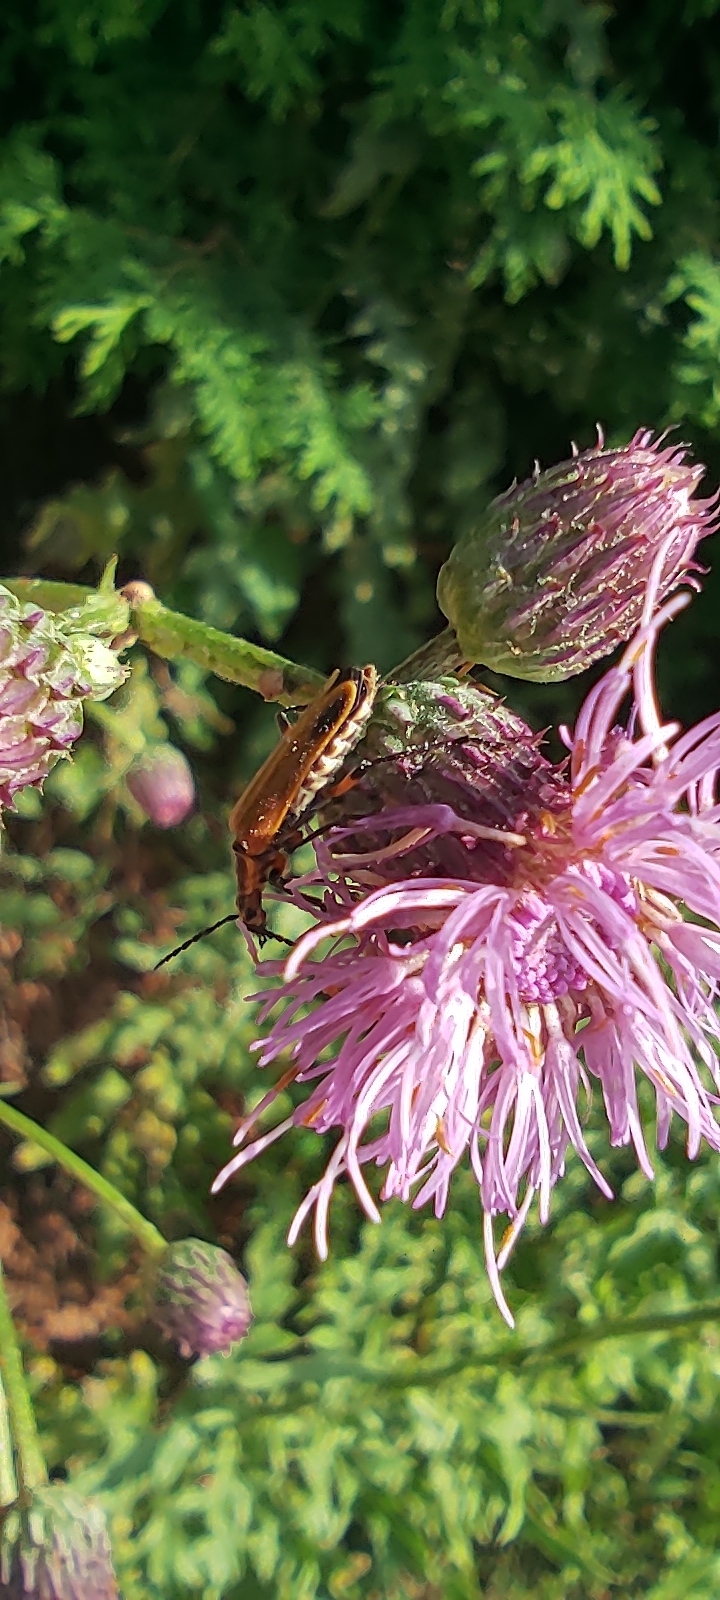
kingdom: Animalia
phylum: Arthropoda
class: Insecta
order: Coleoptera
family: Cantharidae
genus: Chauliognathus
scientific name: Chauliognathus marginatus
